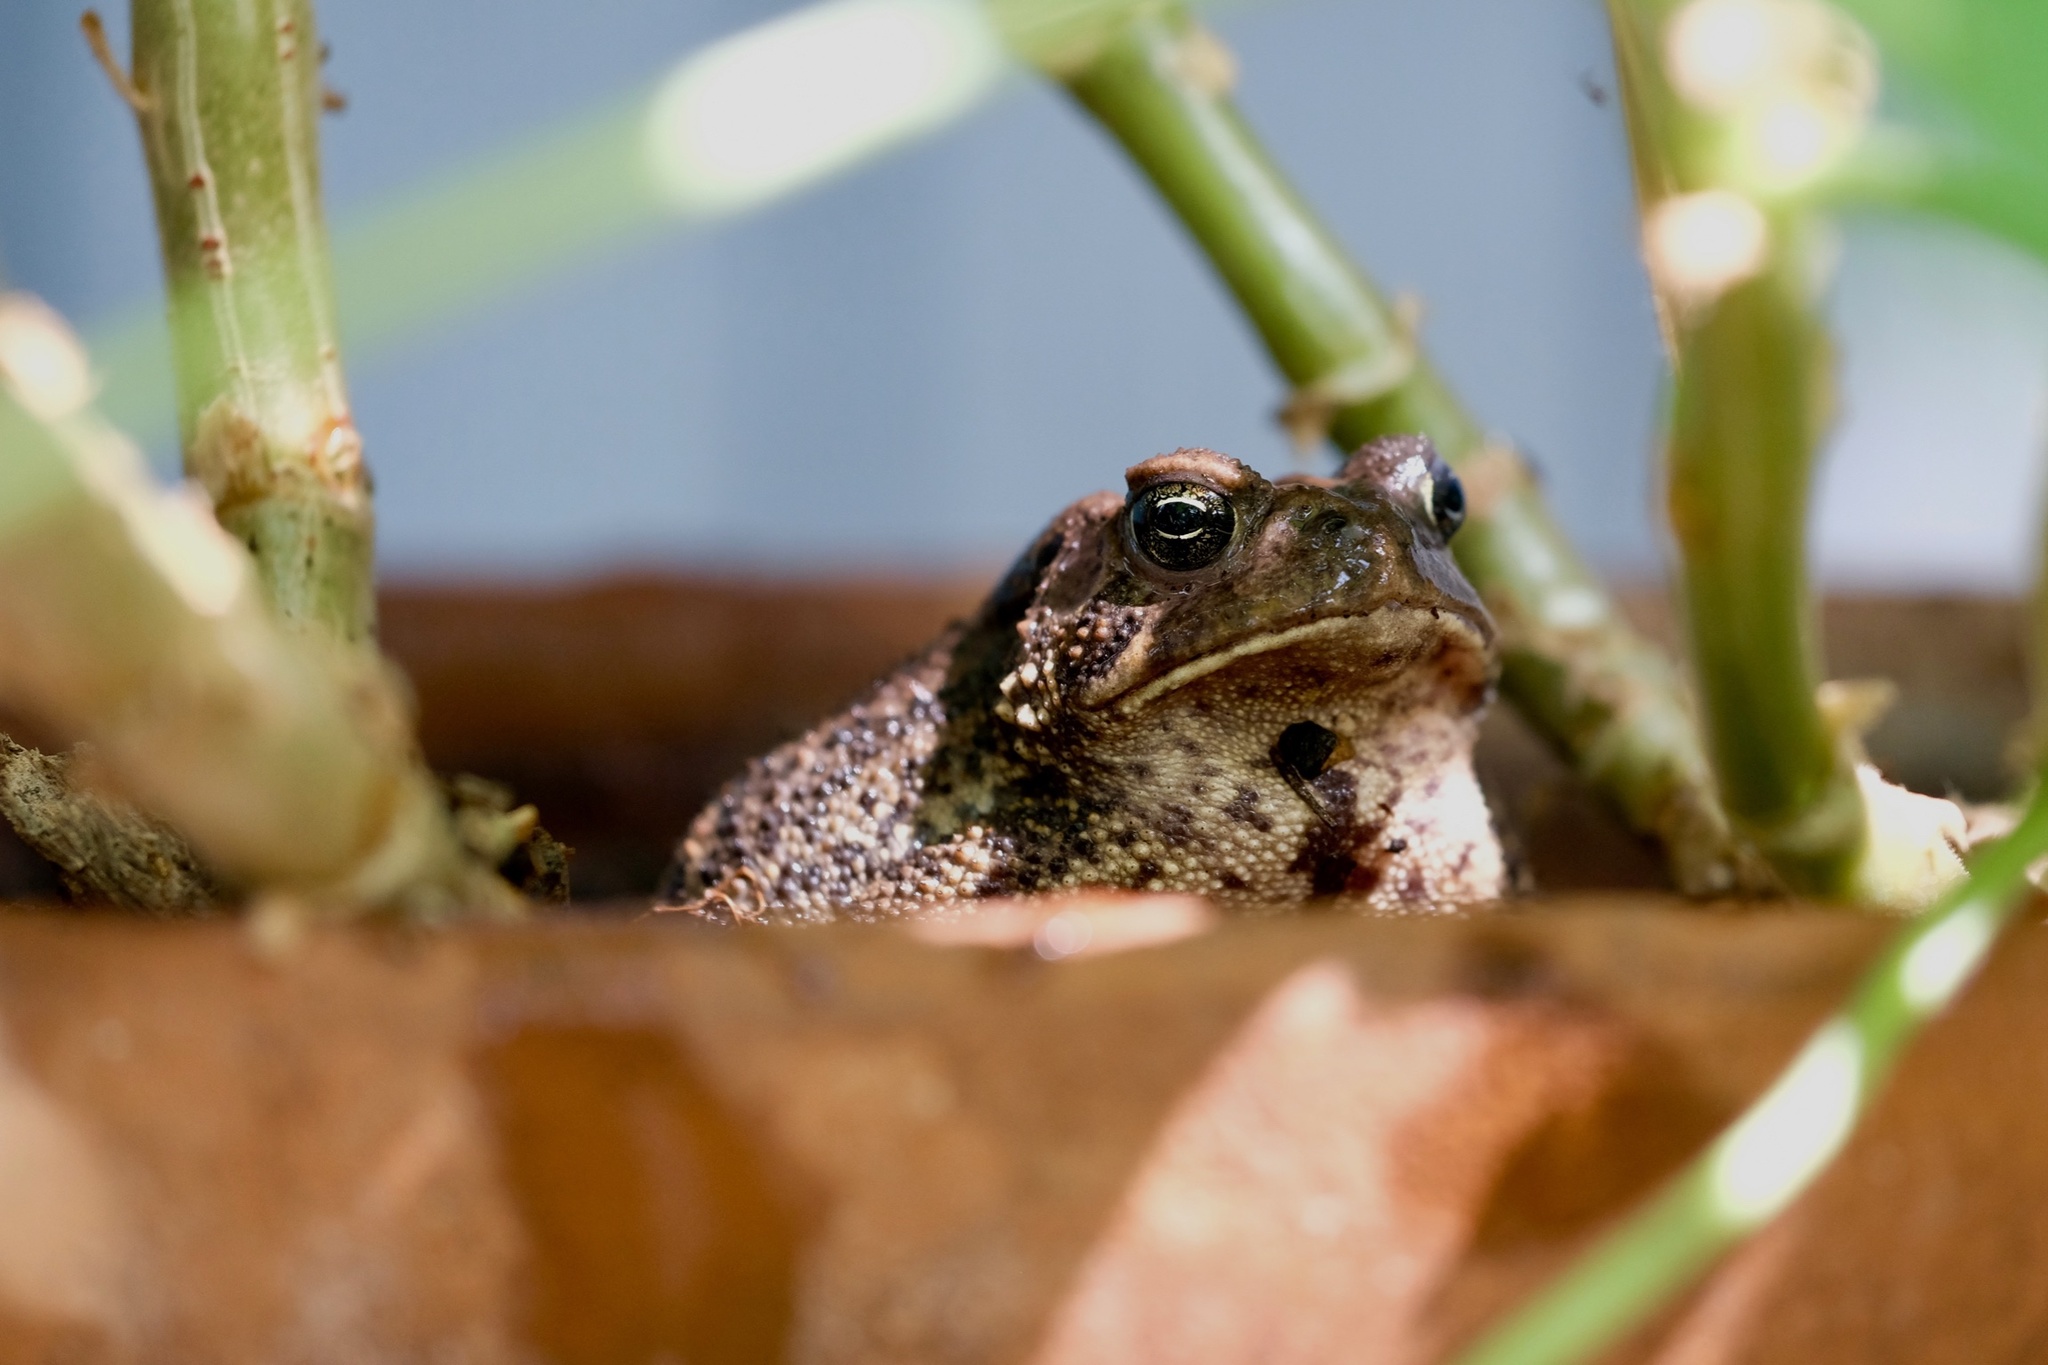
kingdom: Animalia
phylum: Chordata
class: Amphibia
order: Anura
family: Bufonidae
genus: Anaxyrus
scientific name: Anaxyrus americanus
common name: American toad
